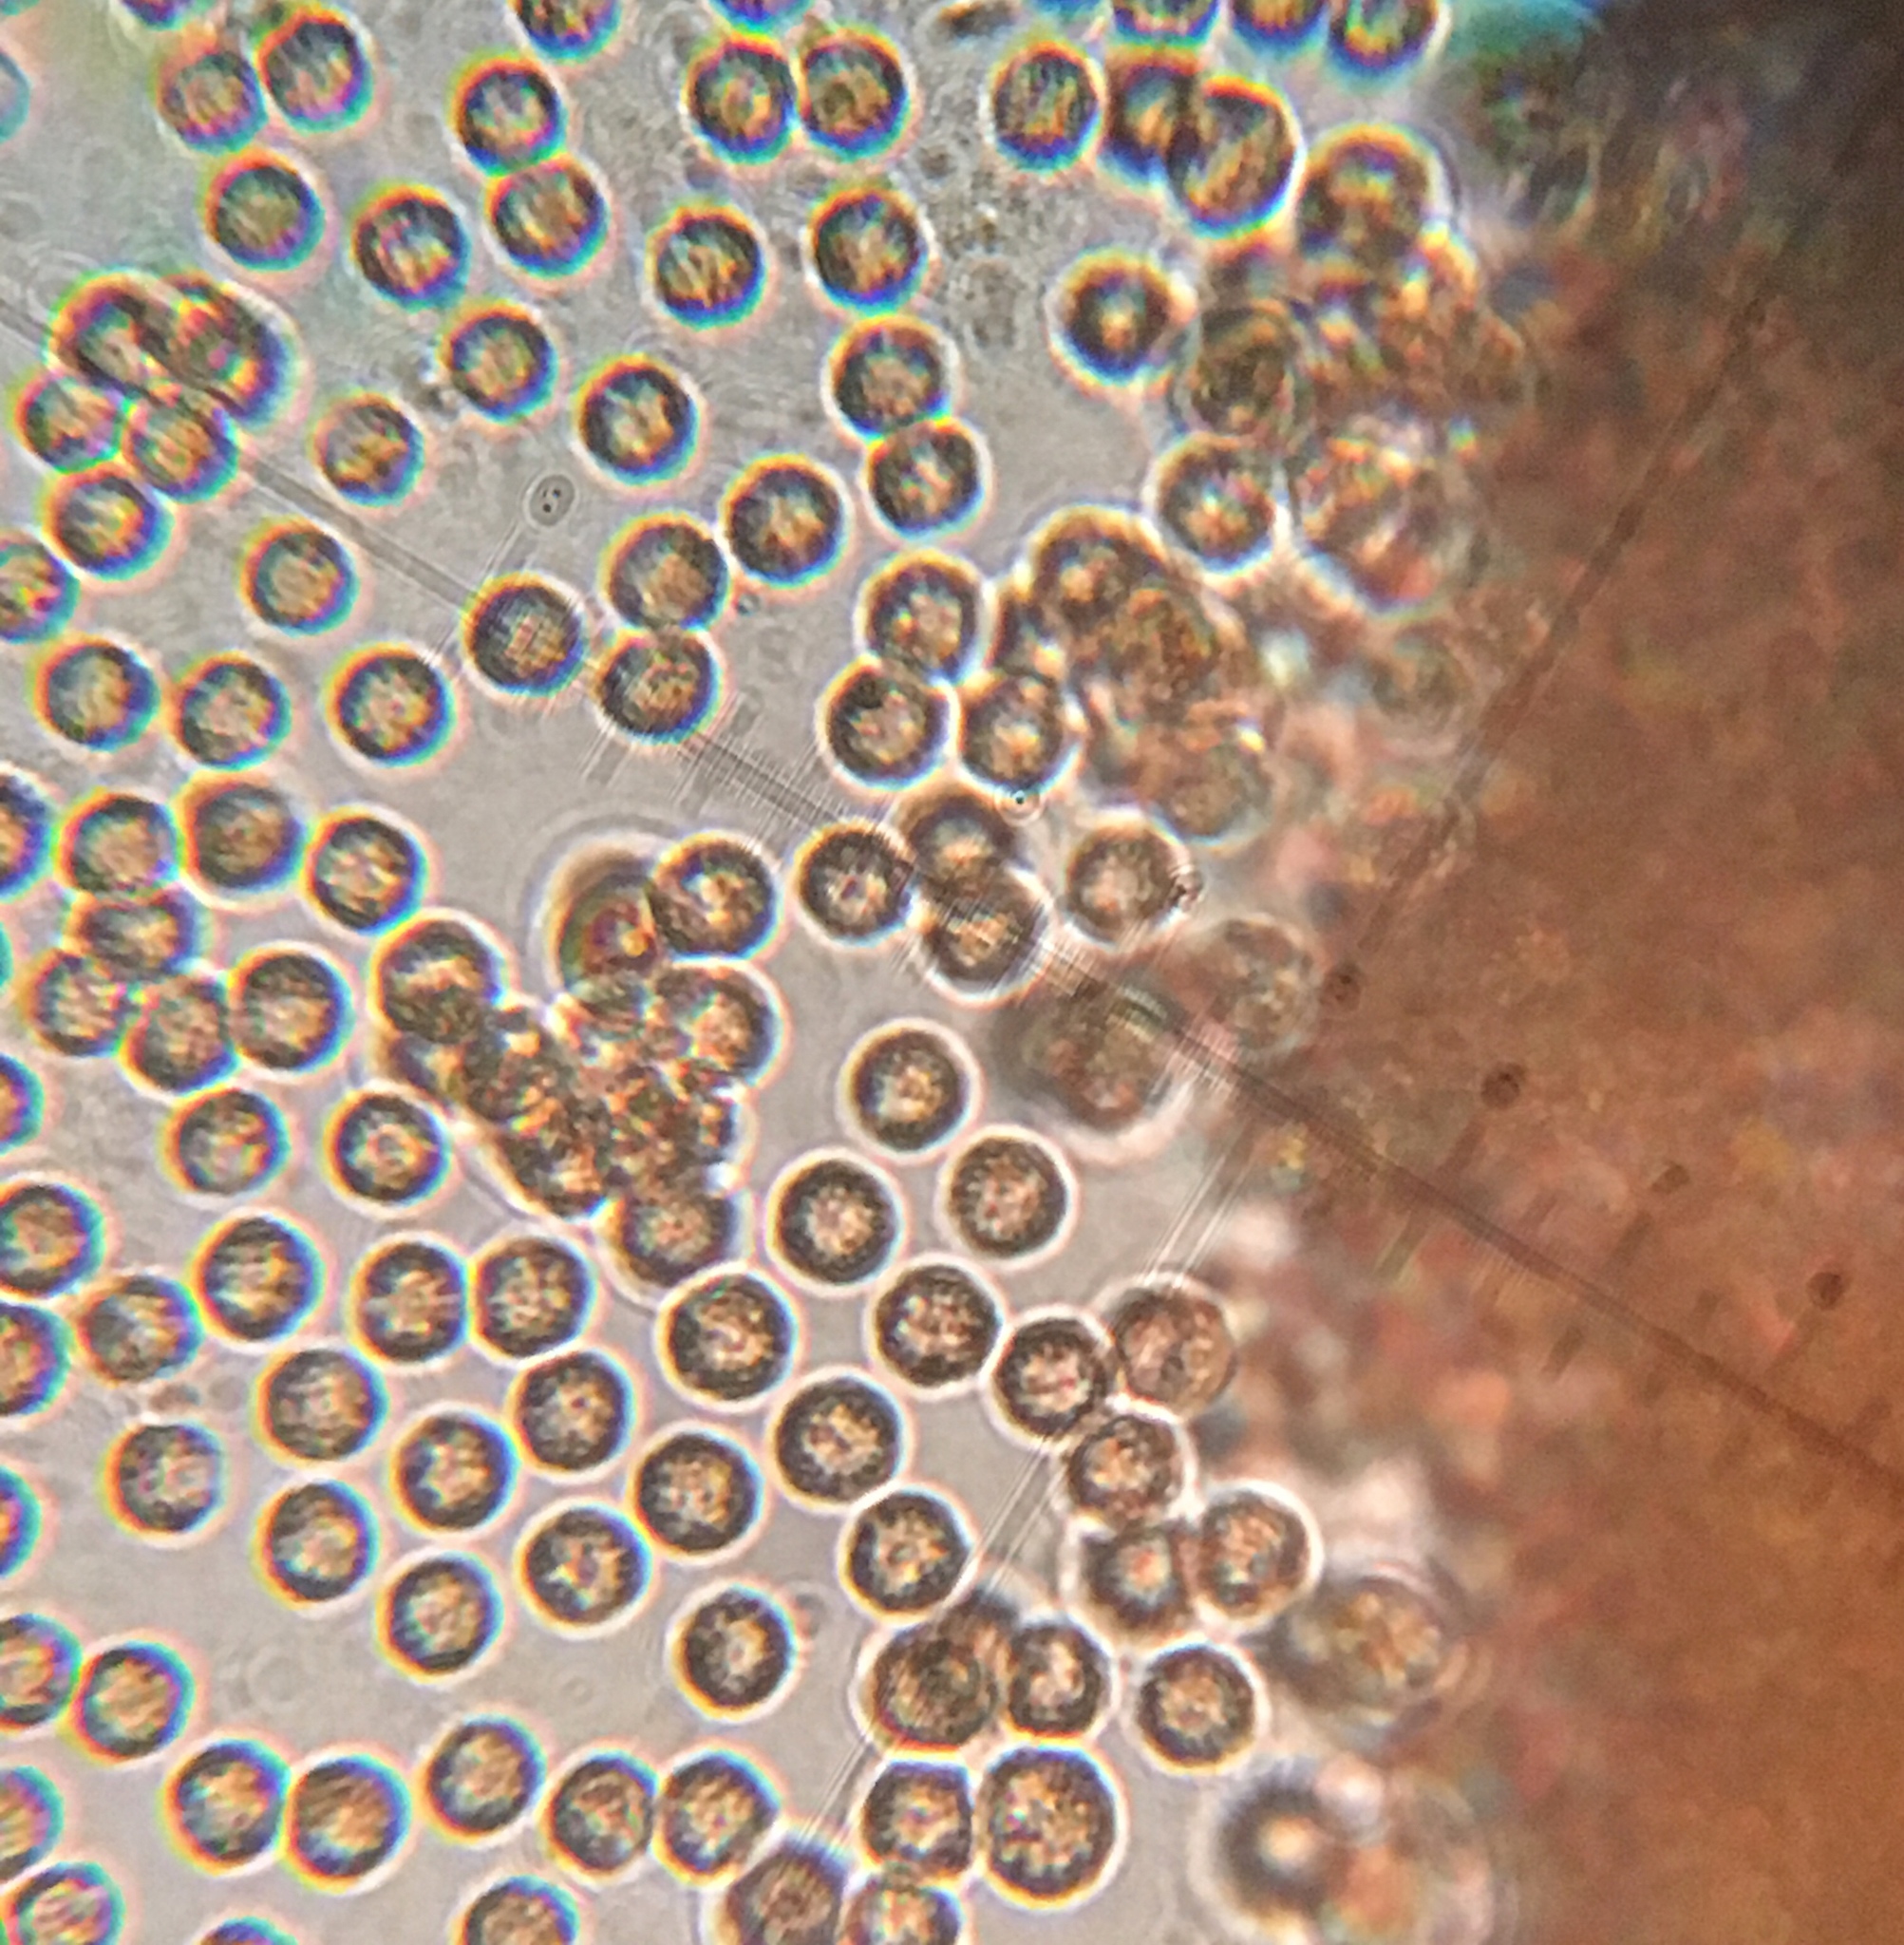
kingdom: Protozoa
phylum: Mycetozoa
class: Myxomycetes
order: Cribrariales
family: Tubiferaceae
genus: Lycogala
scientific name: Lycogala conicum
